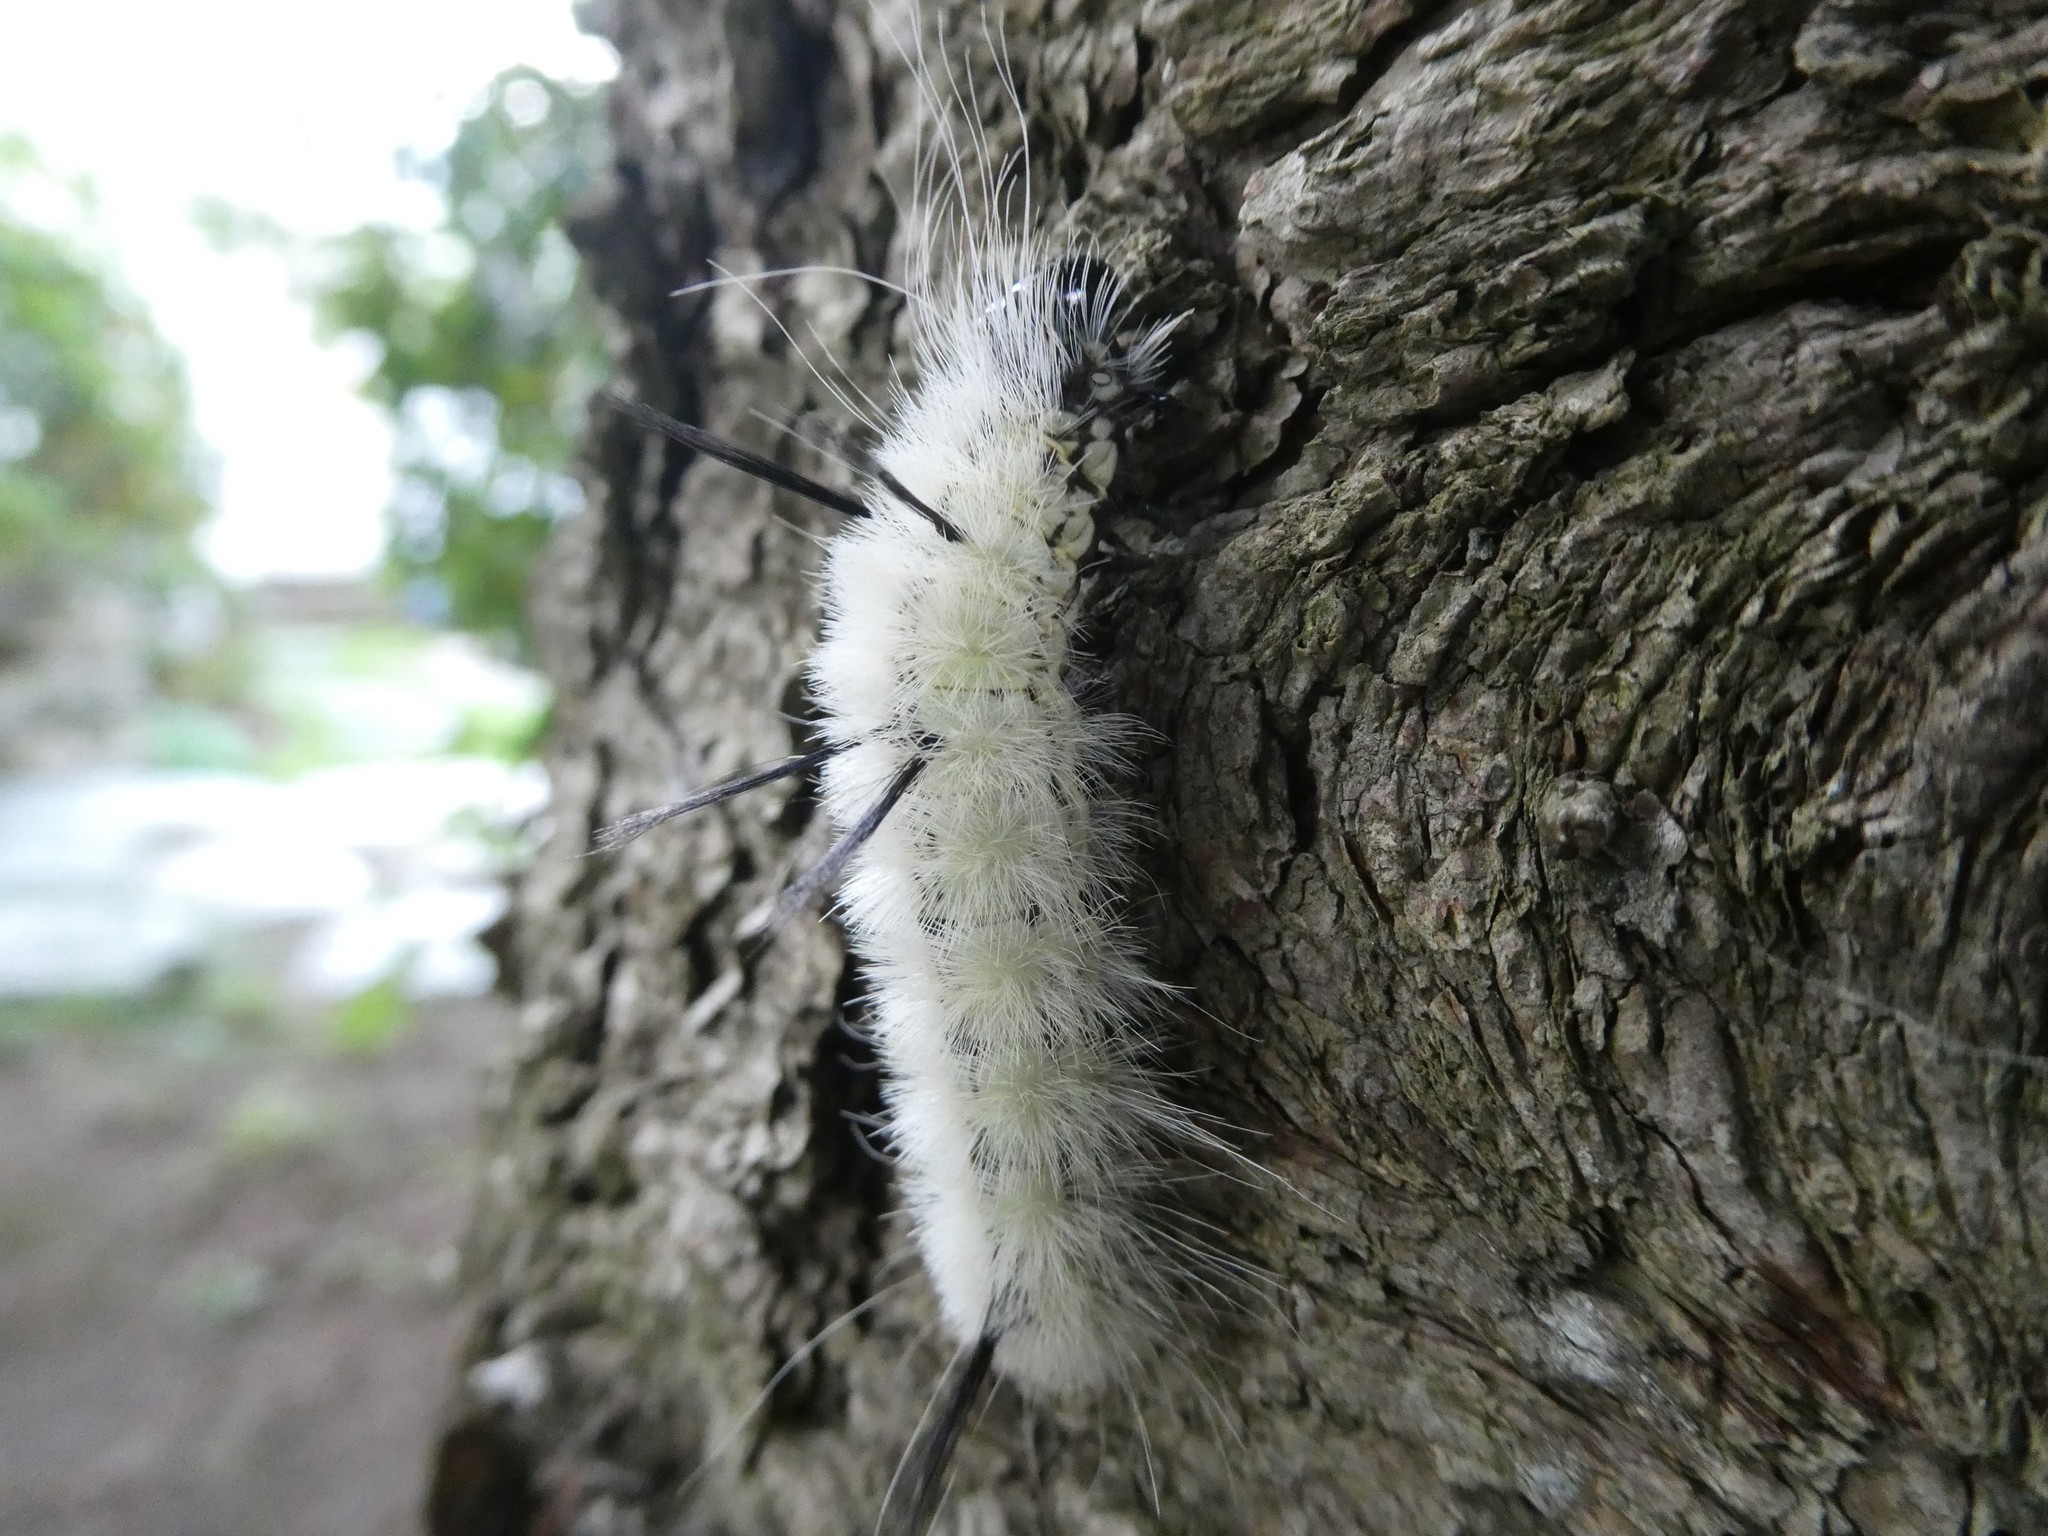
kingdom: Animalia
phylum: Arthropoda
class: Insecta
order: Lepidoptera
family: Noctuidae
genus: Acronicta
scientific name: Acronicta americana
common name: American dagger
